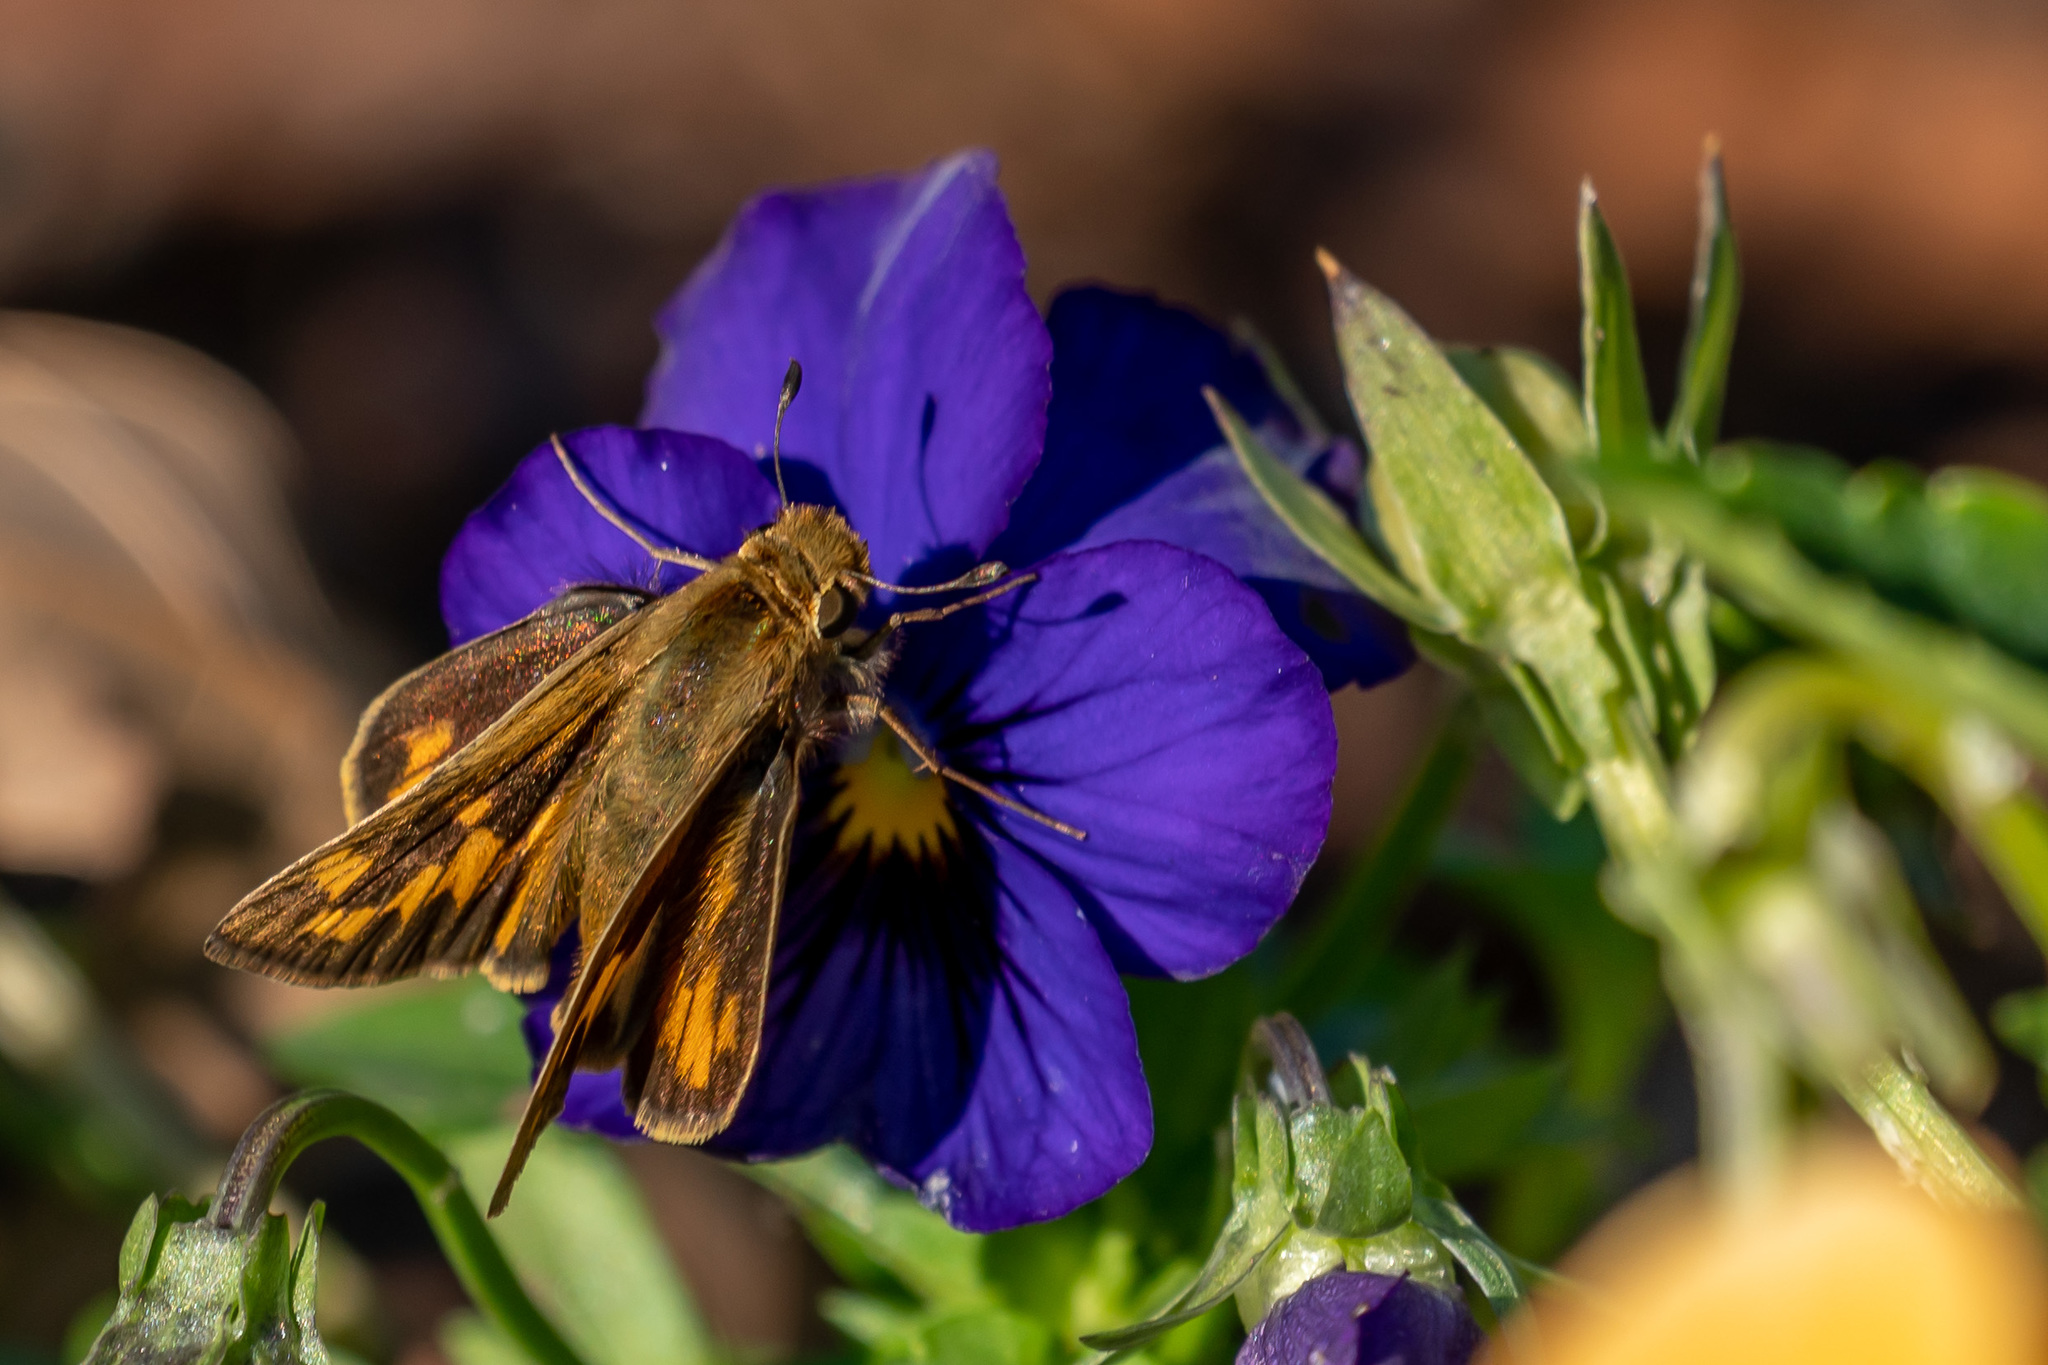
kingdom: Animalia
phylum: Arthropoda
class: Insecta
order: Lepidoptera
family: Hesperiidae
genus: Hylephila
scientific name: Hylephila phyleus
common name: Fiery skipper
